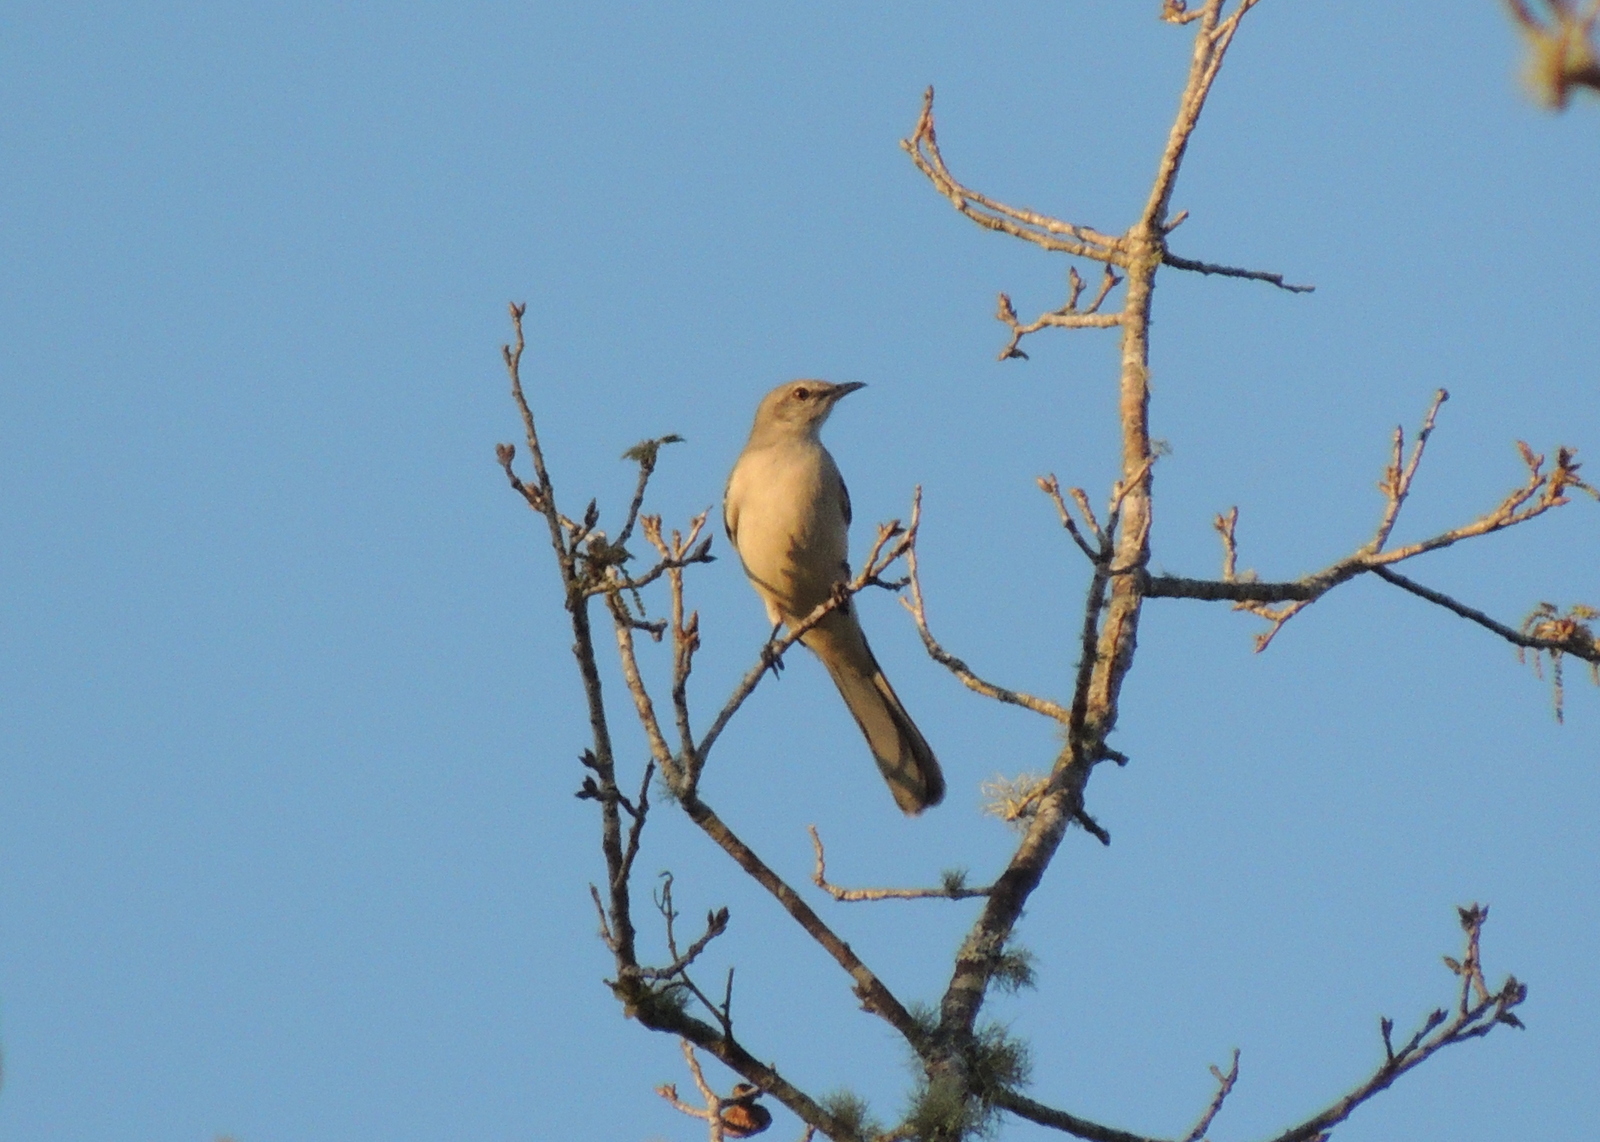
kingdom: Animalia
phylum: Chordata
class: Aves
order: Passeriformes
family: Mimidae
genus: Mimus
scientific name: Mimus polyglottos
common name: Northern mockingbird
